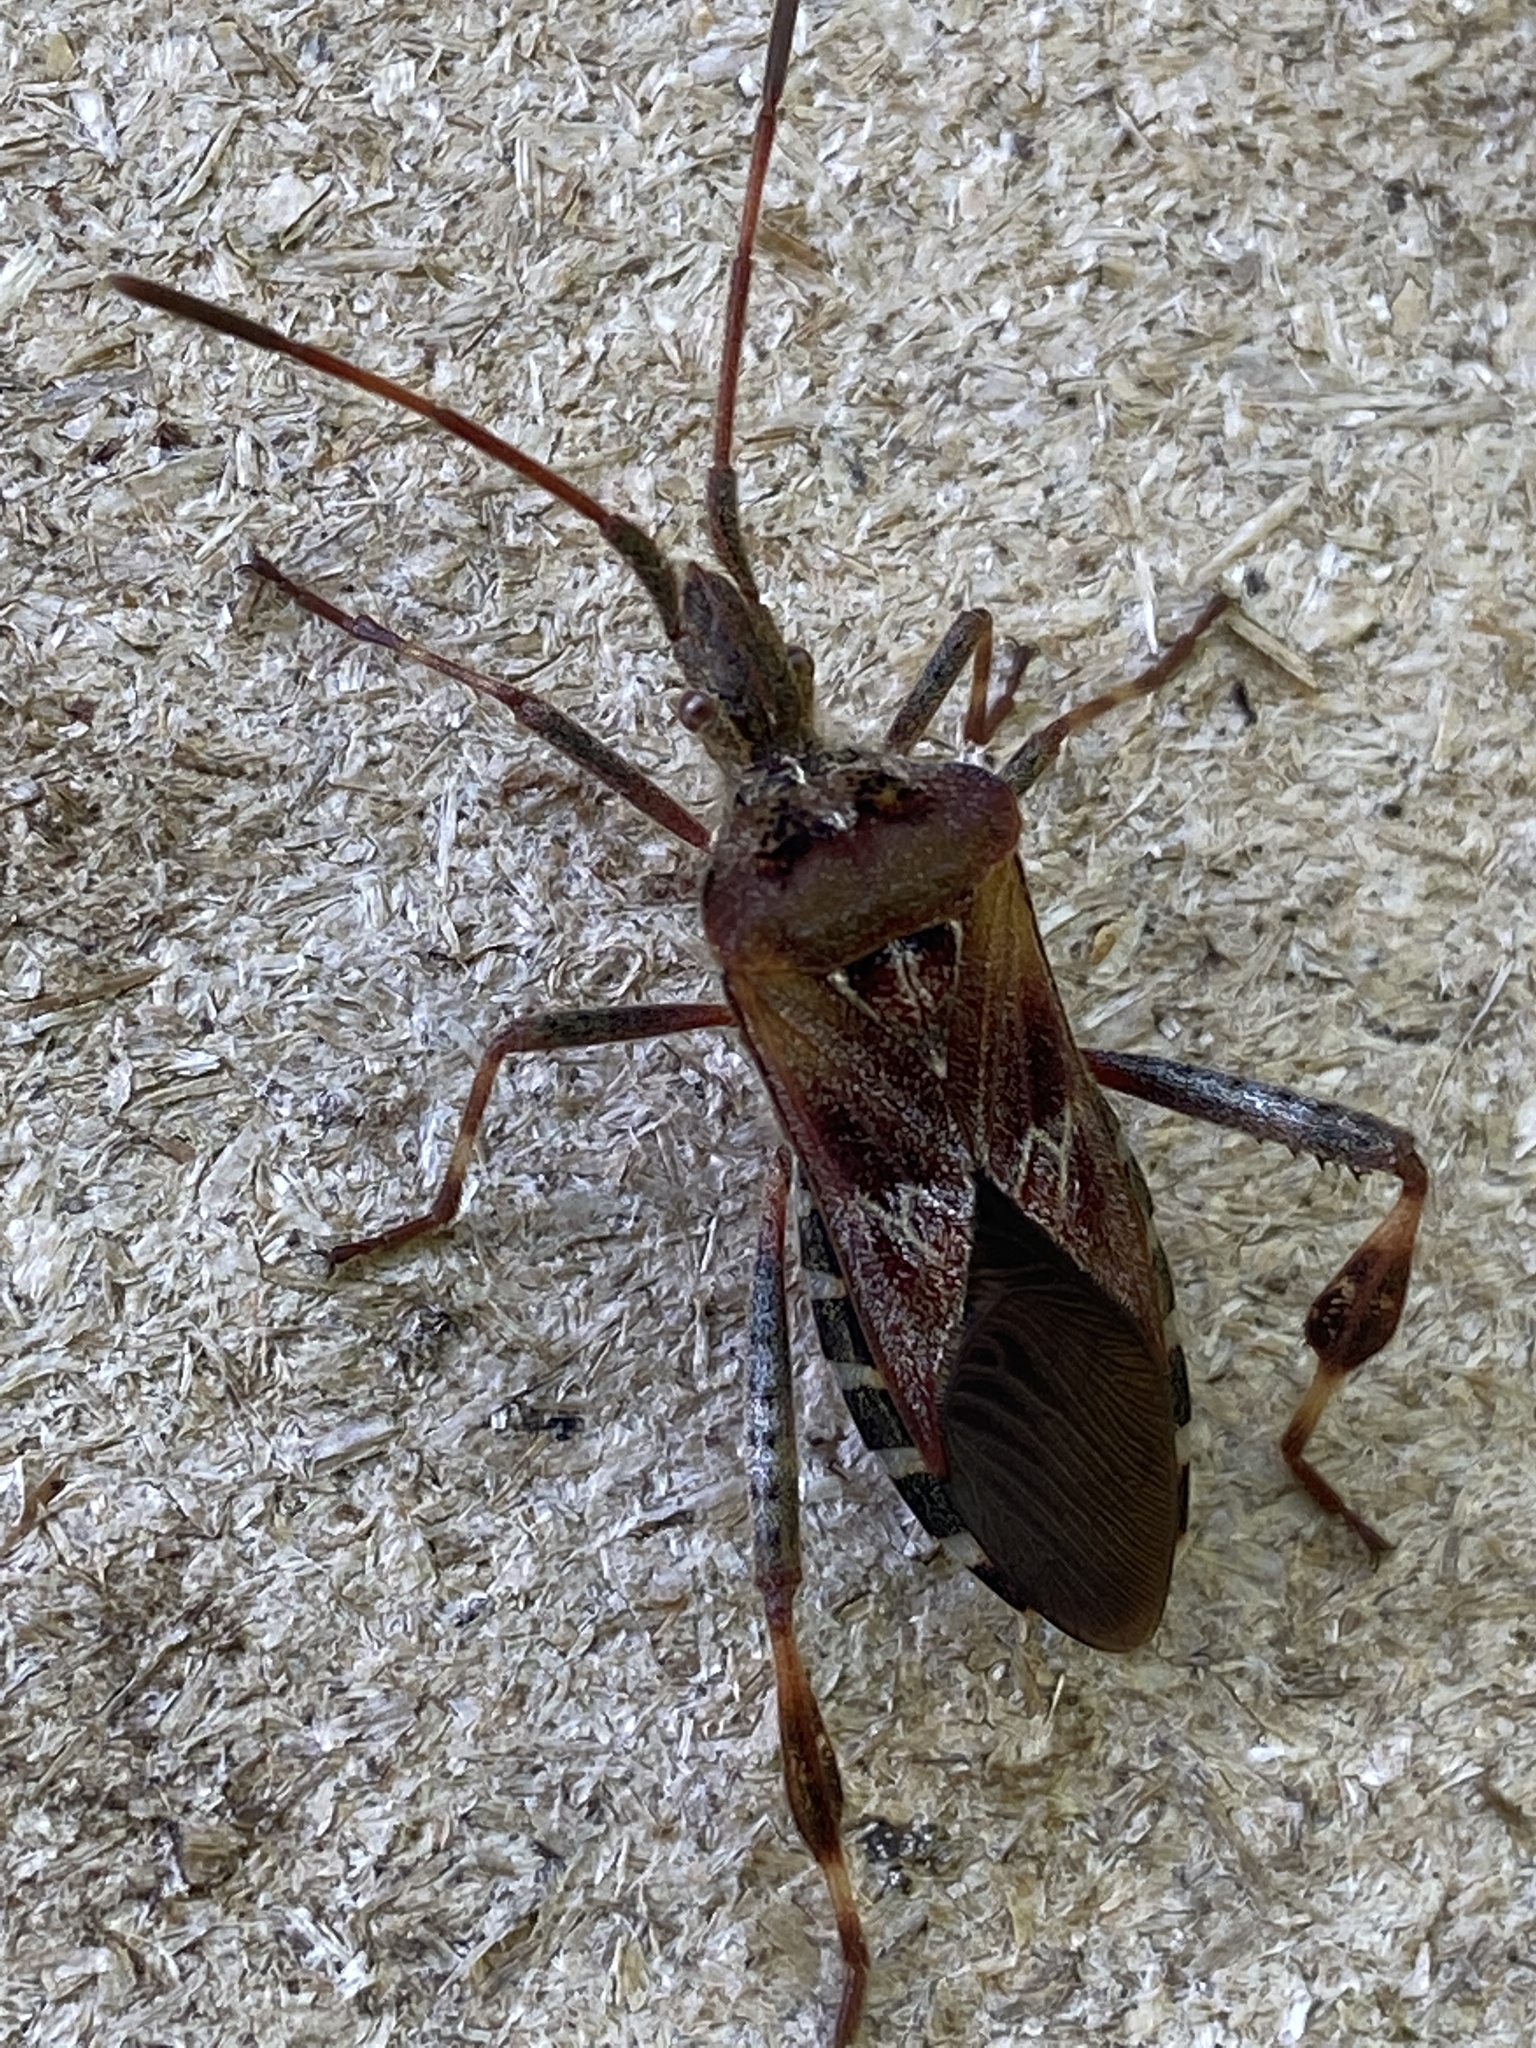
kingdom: Animalia
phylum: Arthropoda
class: Insecta
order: Hemiptera
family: Coreidae
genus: Leptoglossus
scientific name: Leptoglossus occidentalis
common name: Western conifer-seed bug
